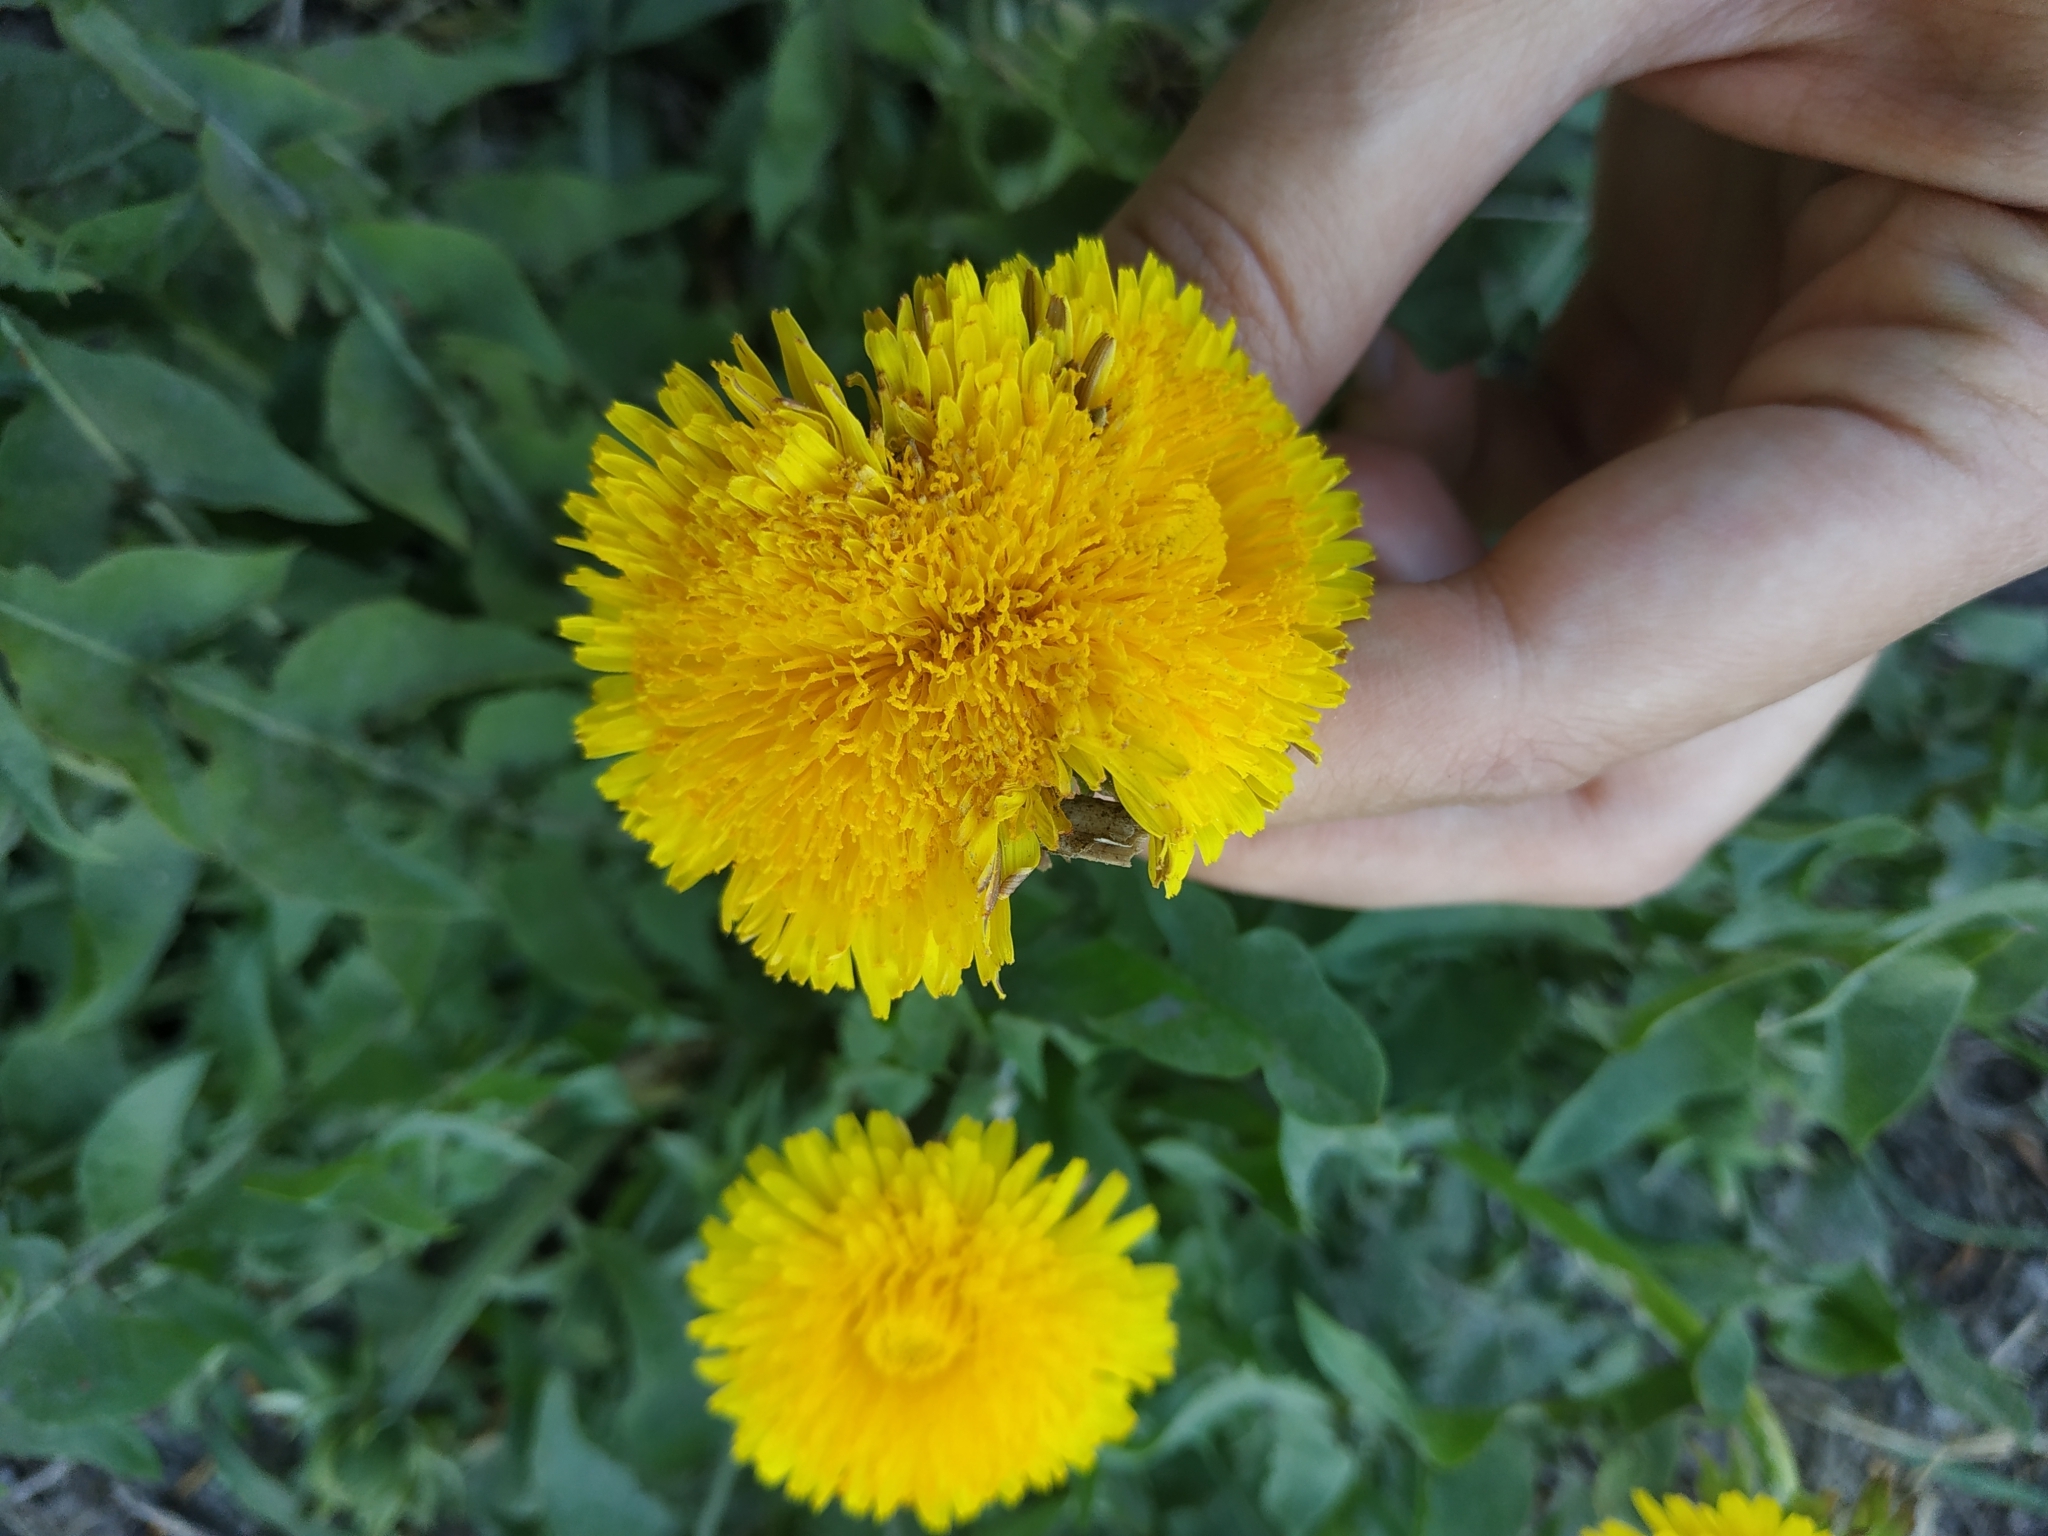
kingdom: Plantae
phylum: Tracheophyta
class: Magnoliopsida
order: Asterales
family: Asteraceae
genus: Taraxacum
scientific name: Taraxacum officinale
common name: Common dandelion
